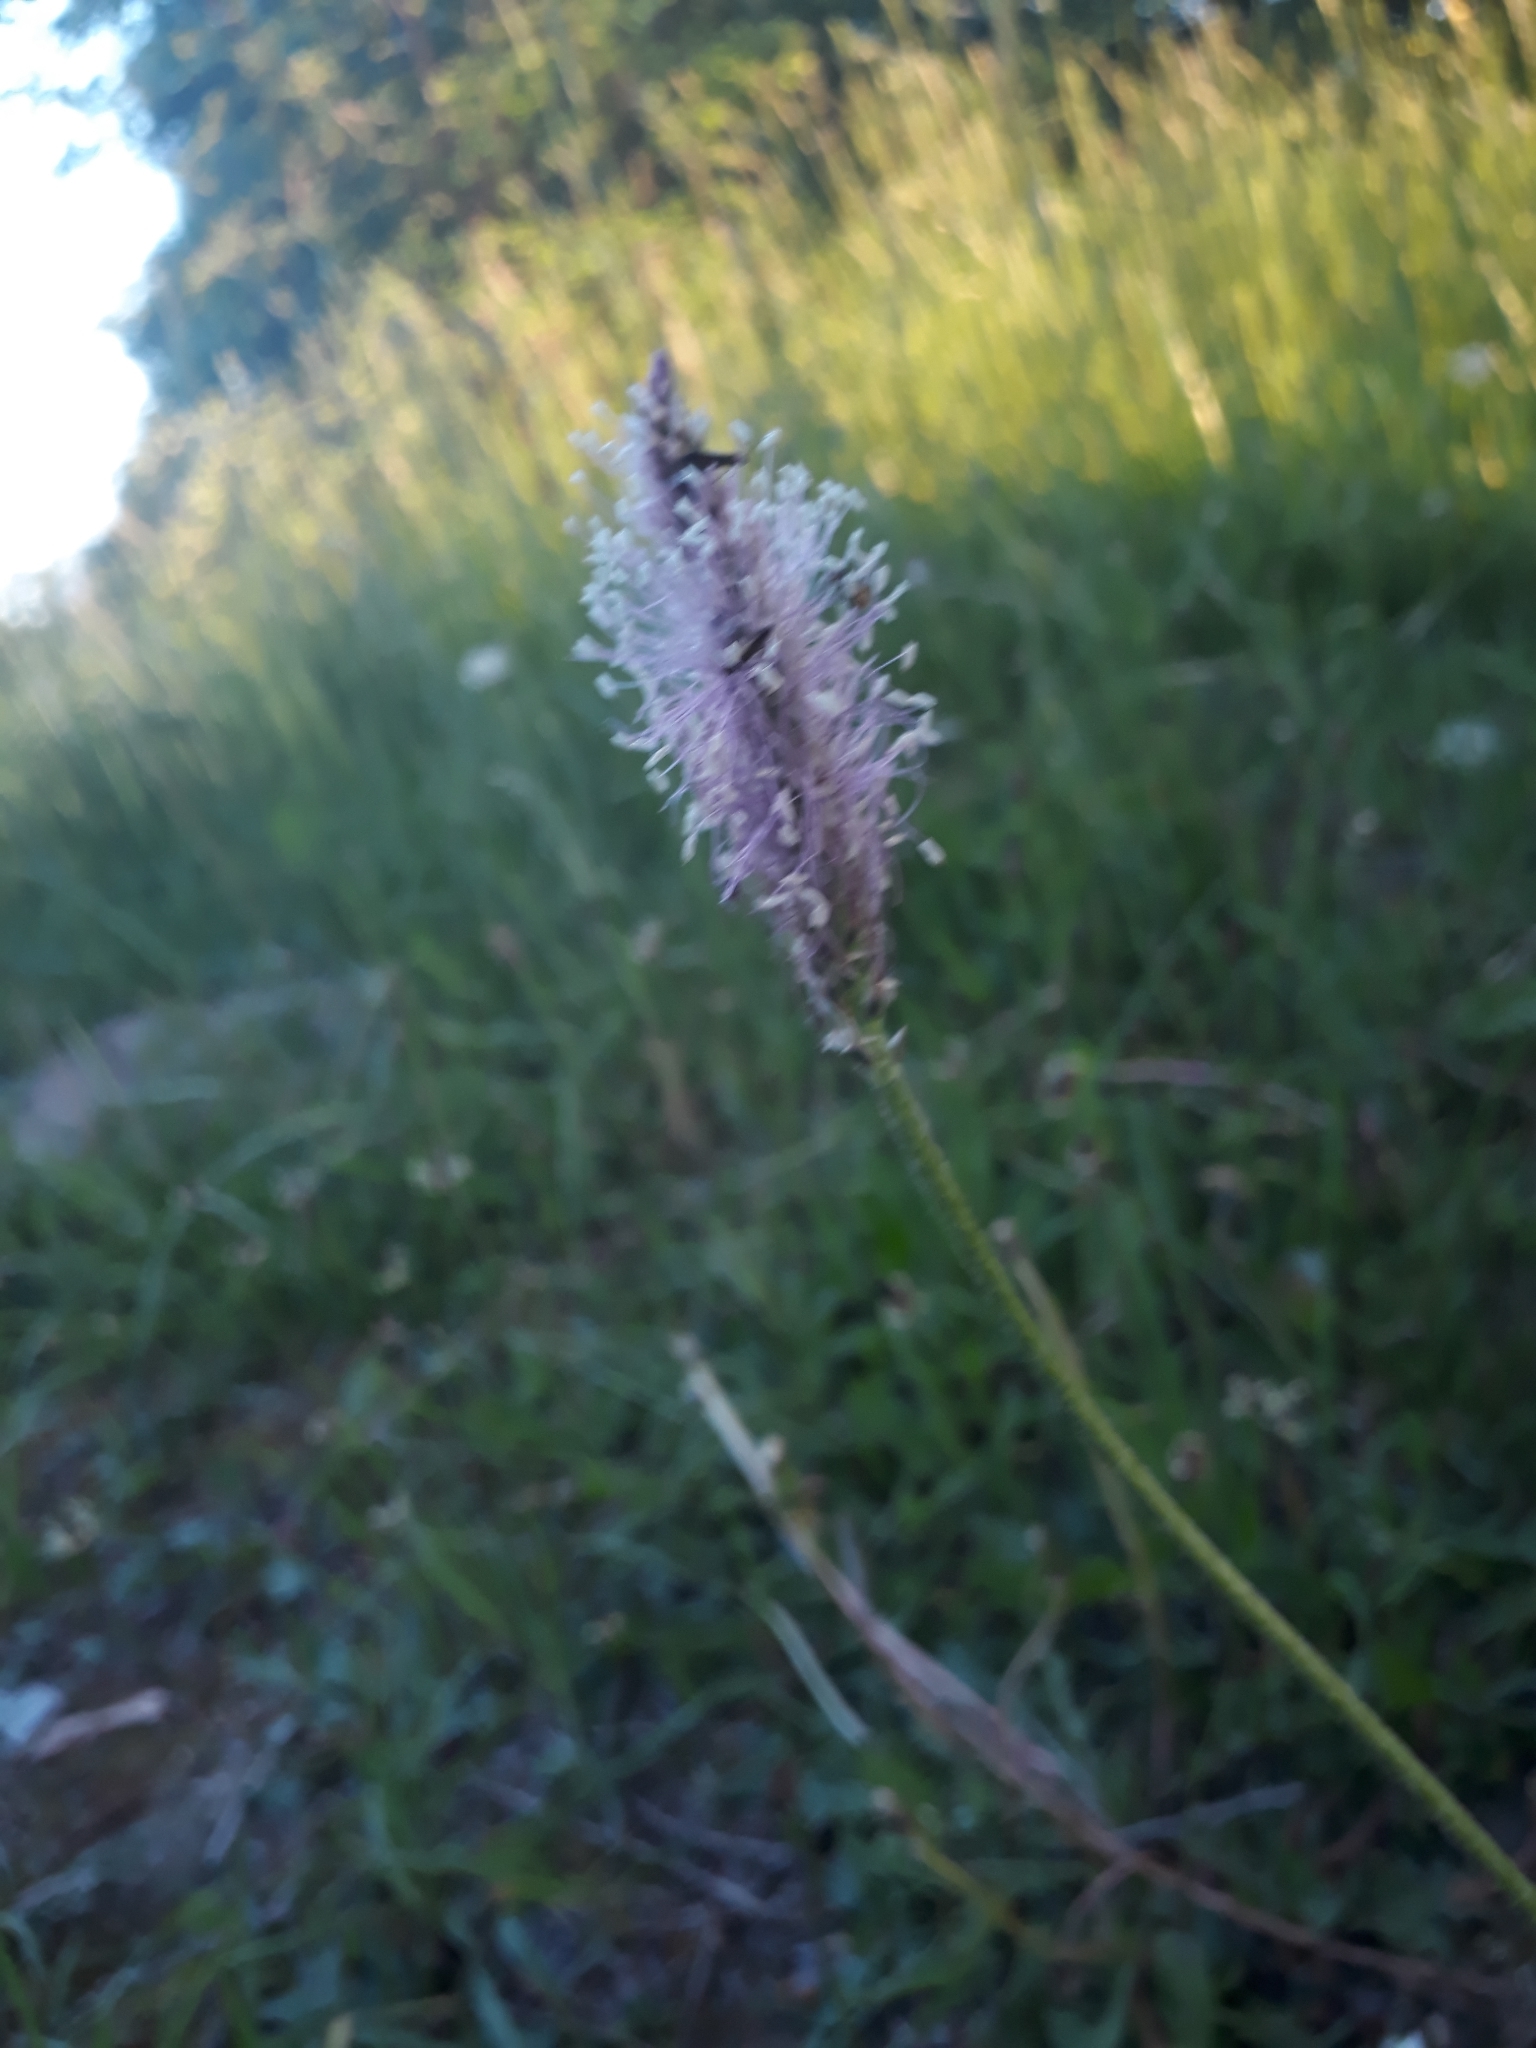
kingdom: Plantae
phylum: Tracheophyta
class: Magnoliopsida
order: Lamiales
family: Plantaginaceae
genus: Plantago
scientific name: Plantago media
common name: Hoary plantain
